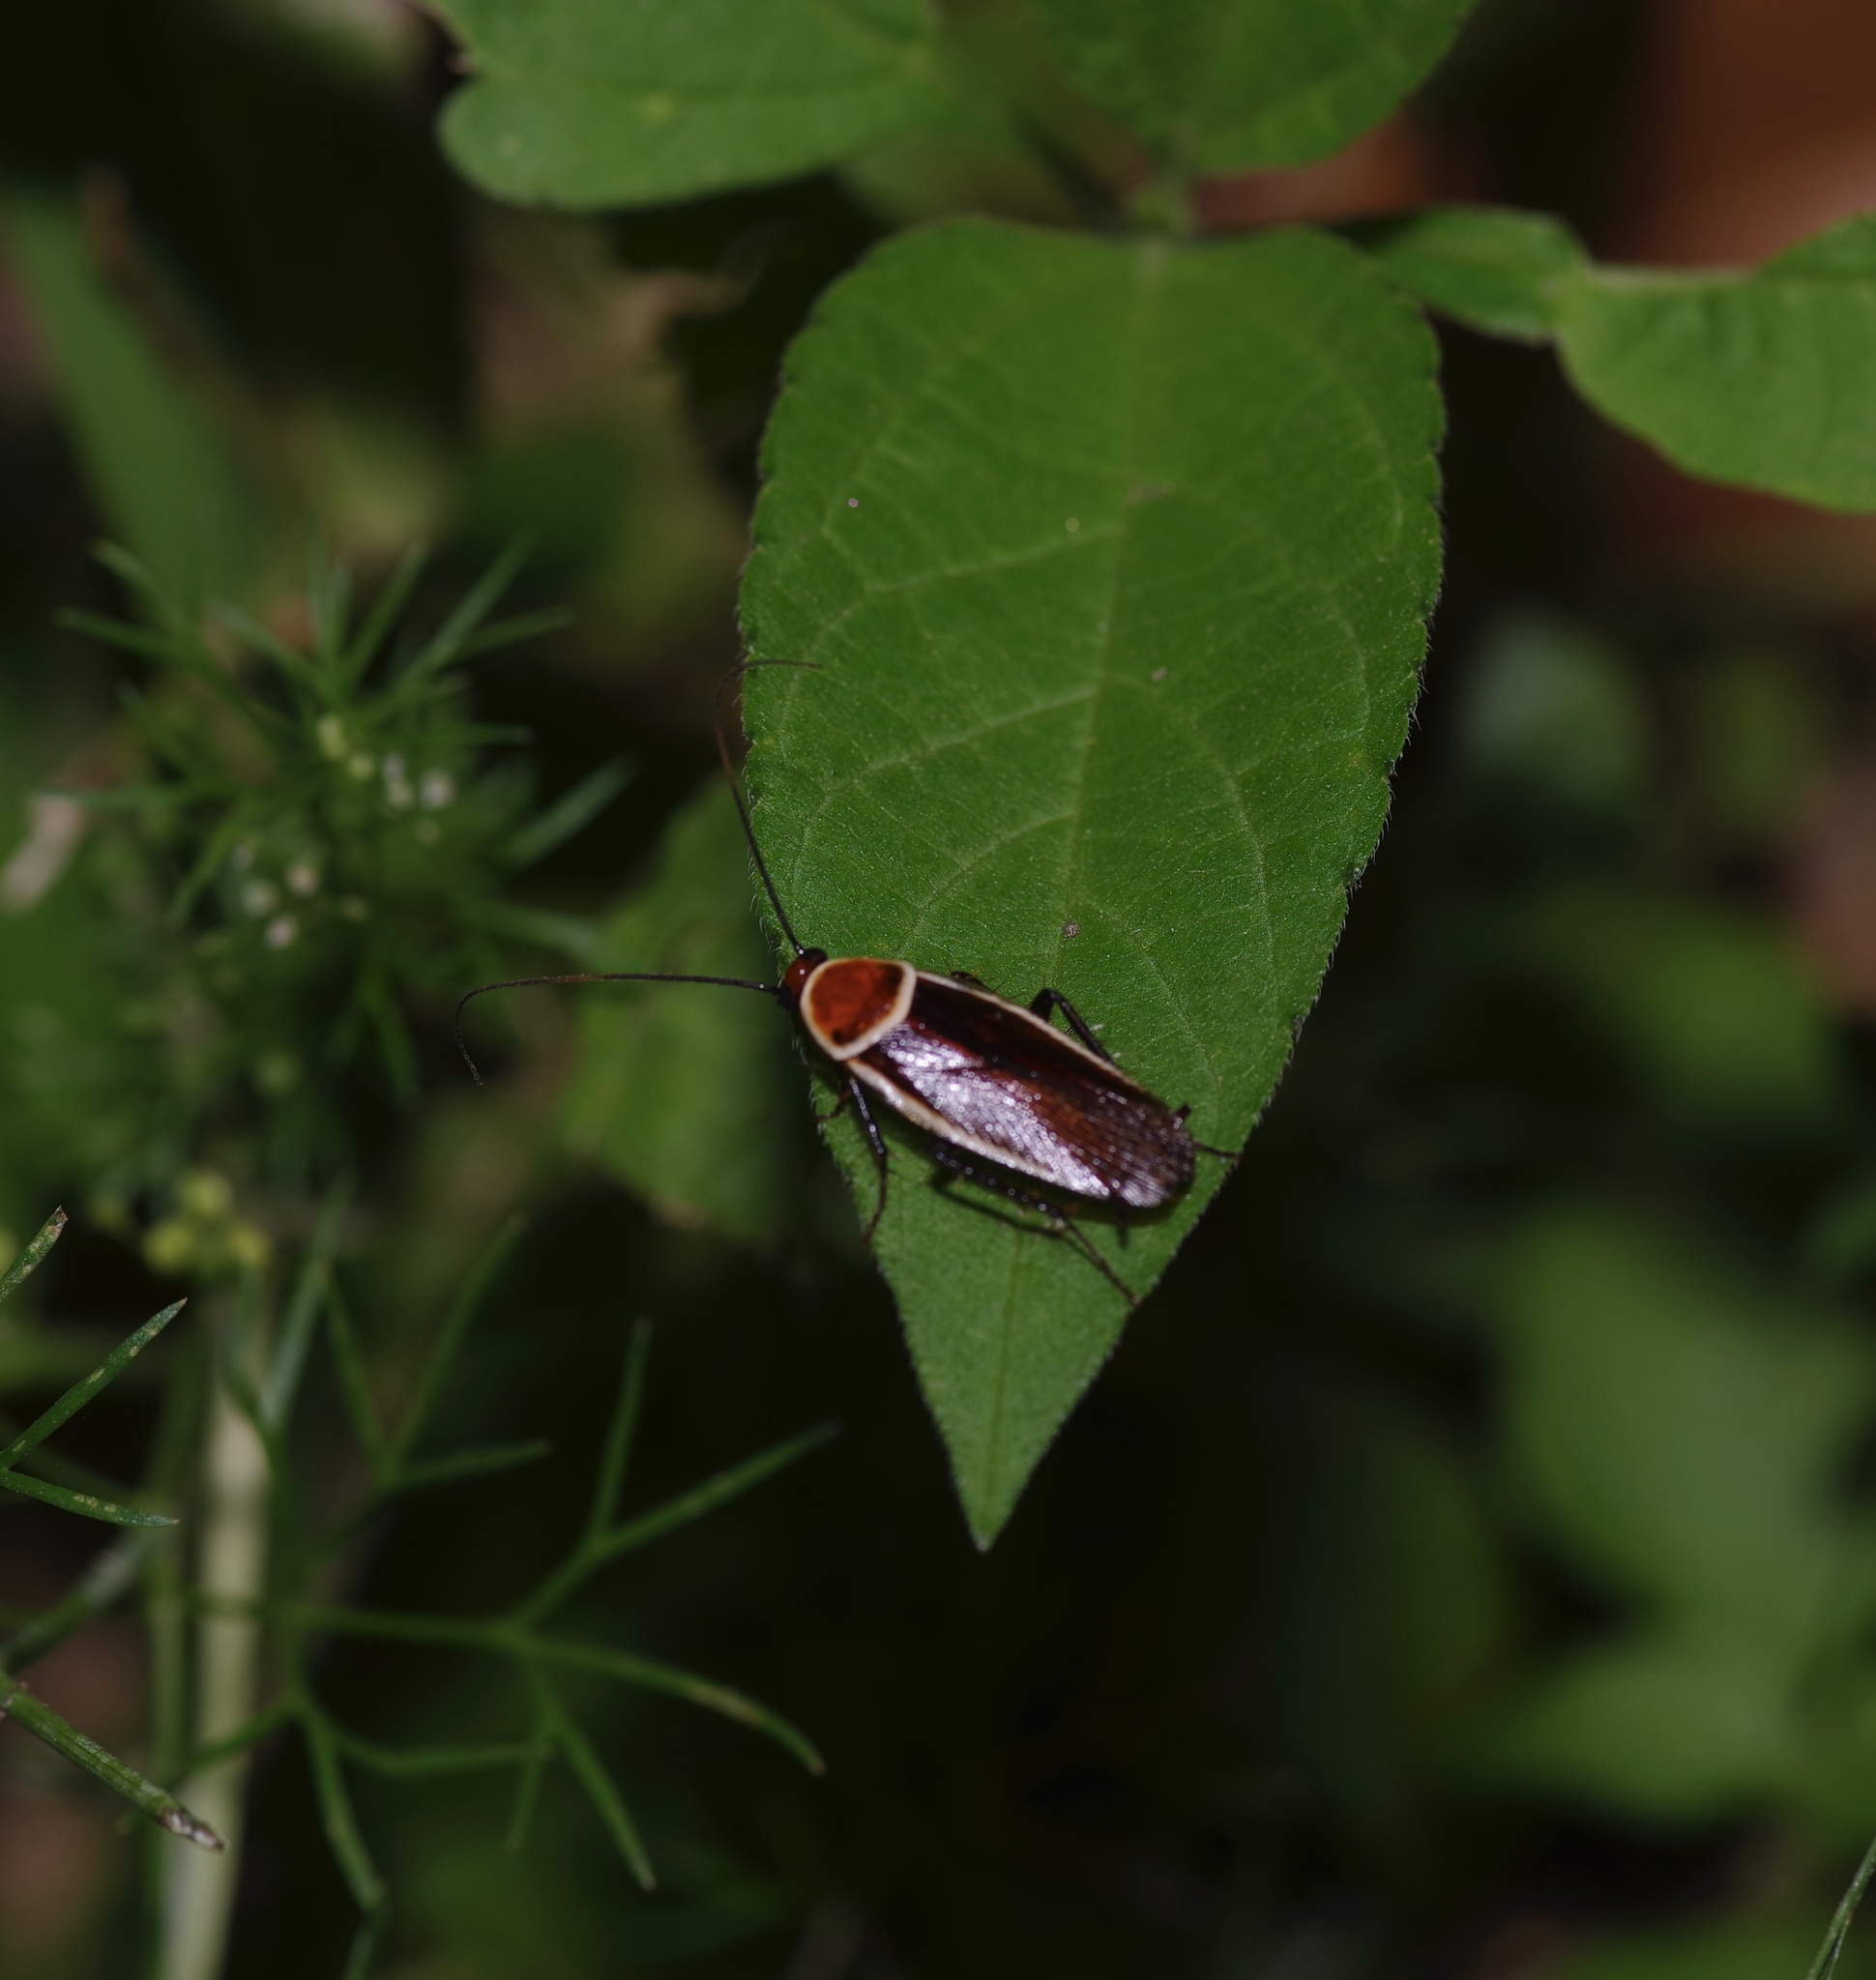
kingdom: Animalia
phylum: Arthropoda
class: Insecta
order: Blattodea
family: Ectobiidae
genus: Pseudomops
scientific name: Pseudomops septentrionalis
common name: Pale-bordered field cockroach
